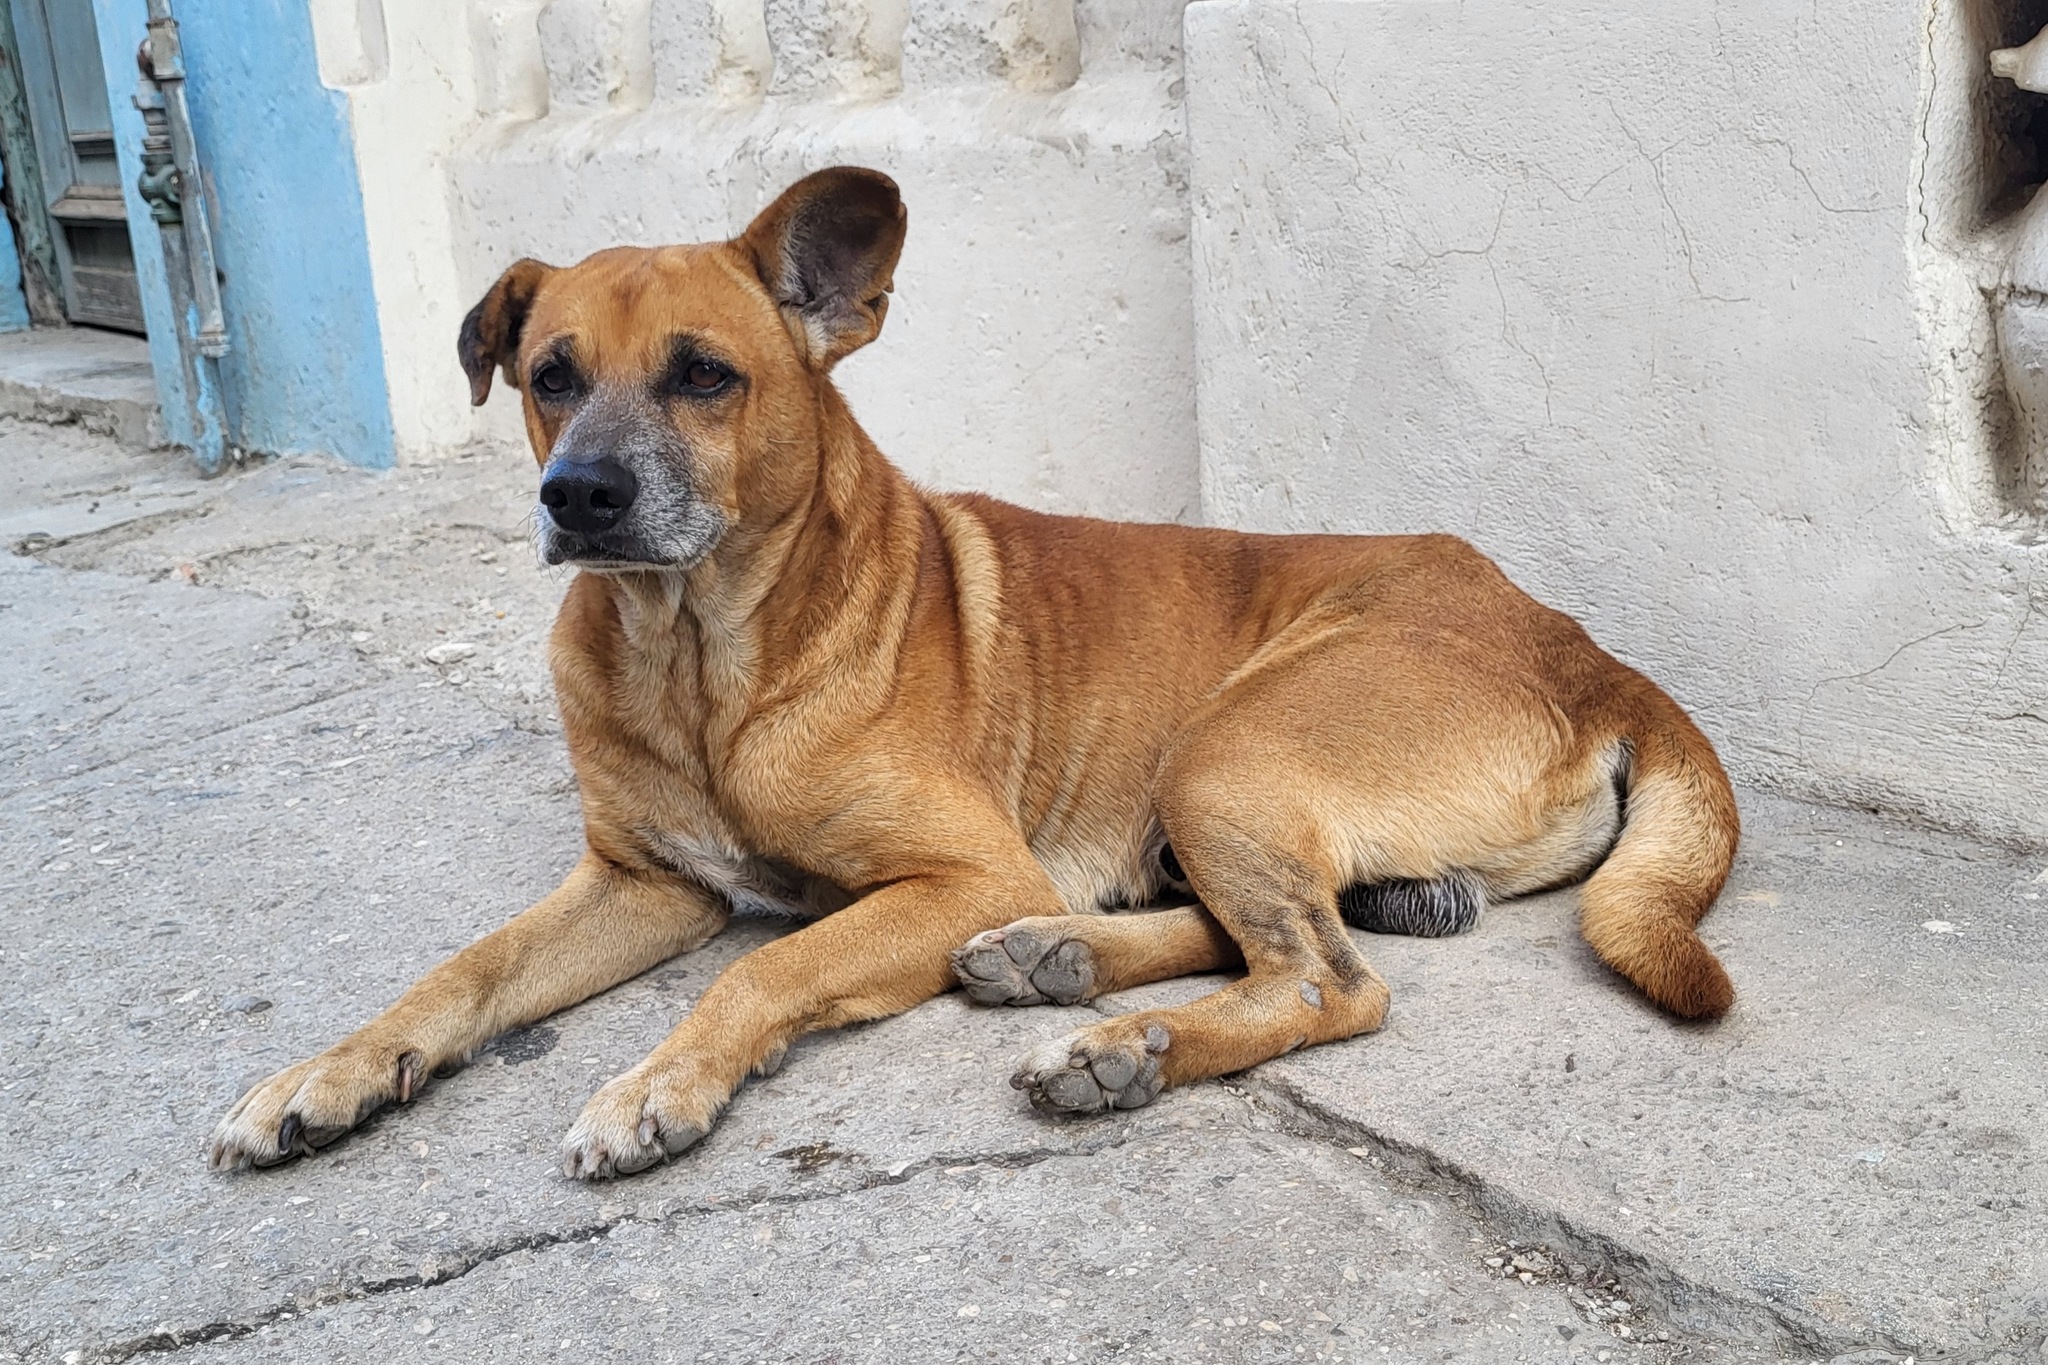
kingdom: Animalia
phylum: Chordata
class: Mammalia
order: Carnivora
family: Canidae
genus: Canis
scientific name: Canis lupus
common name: Gray wolf
